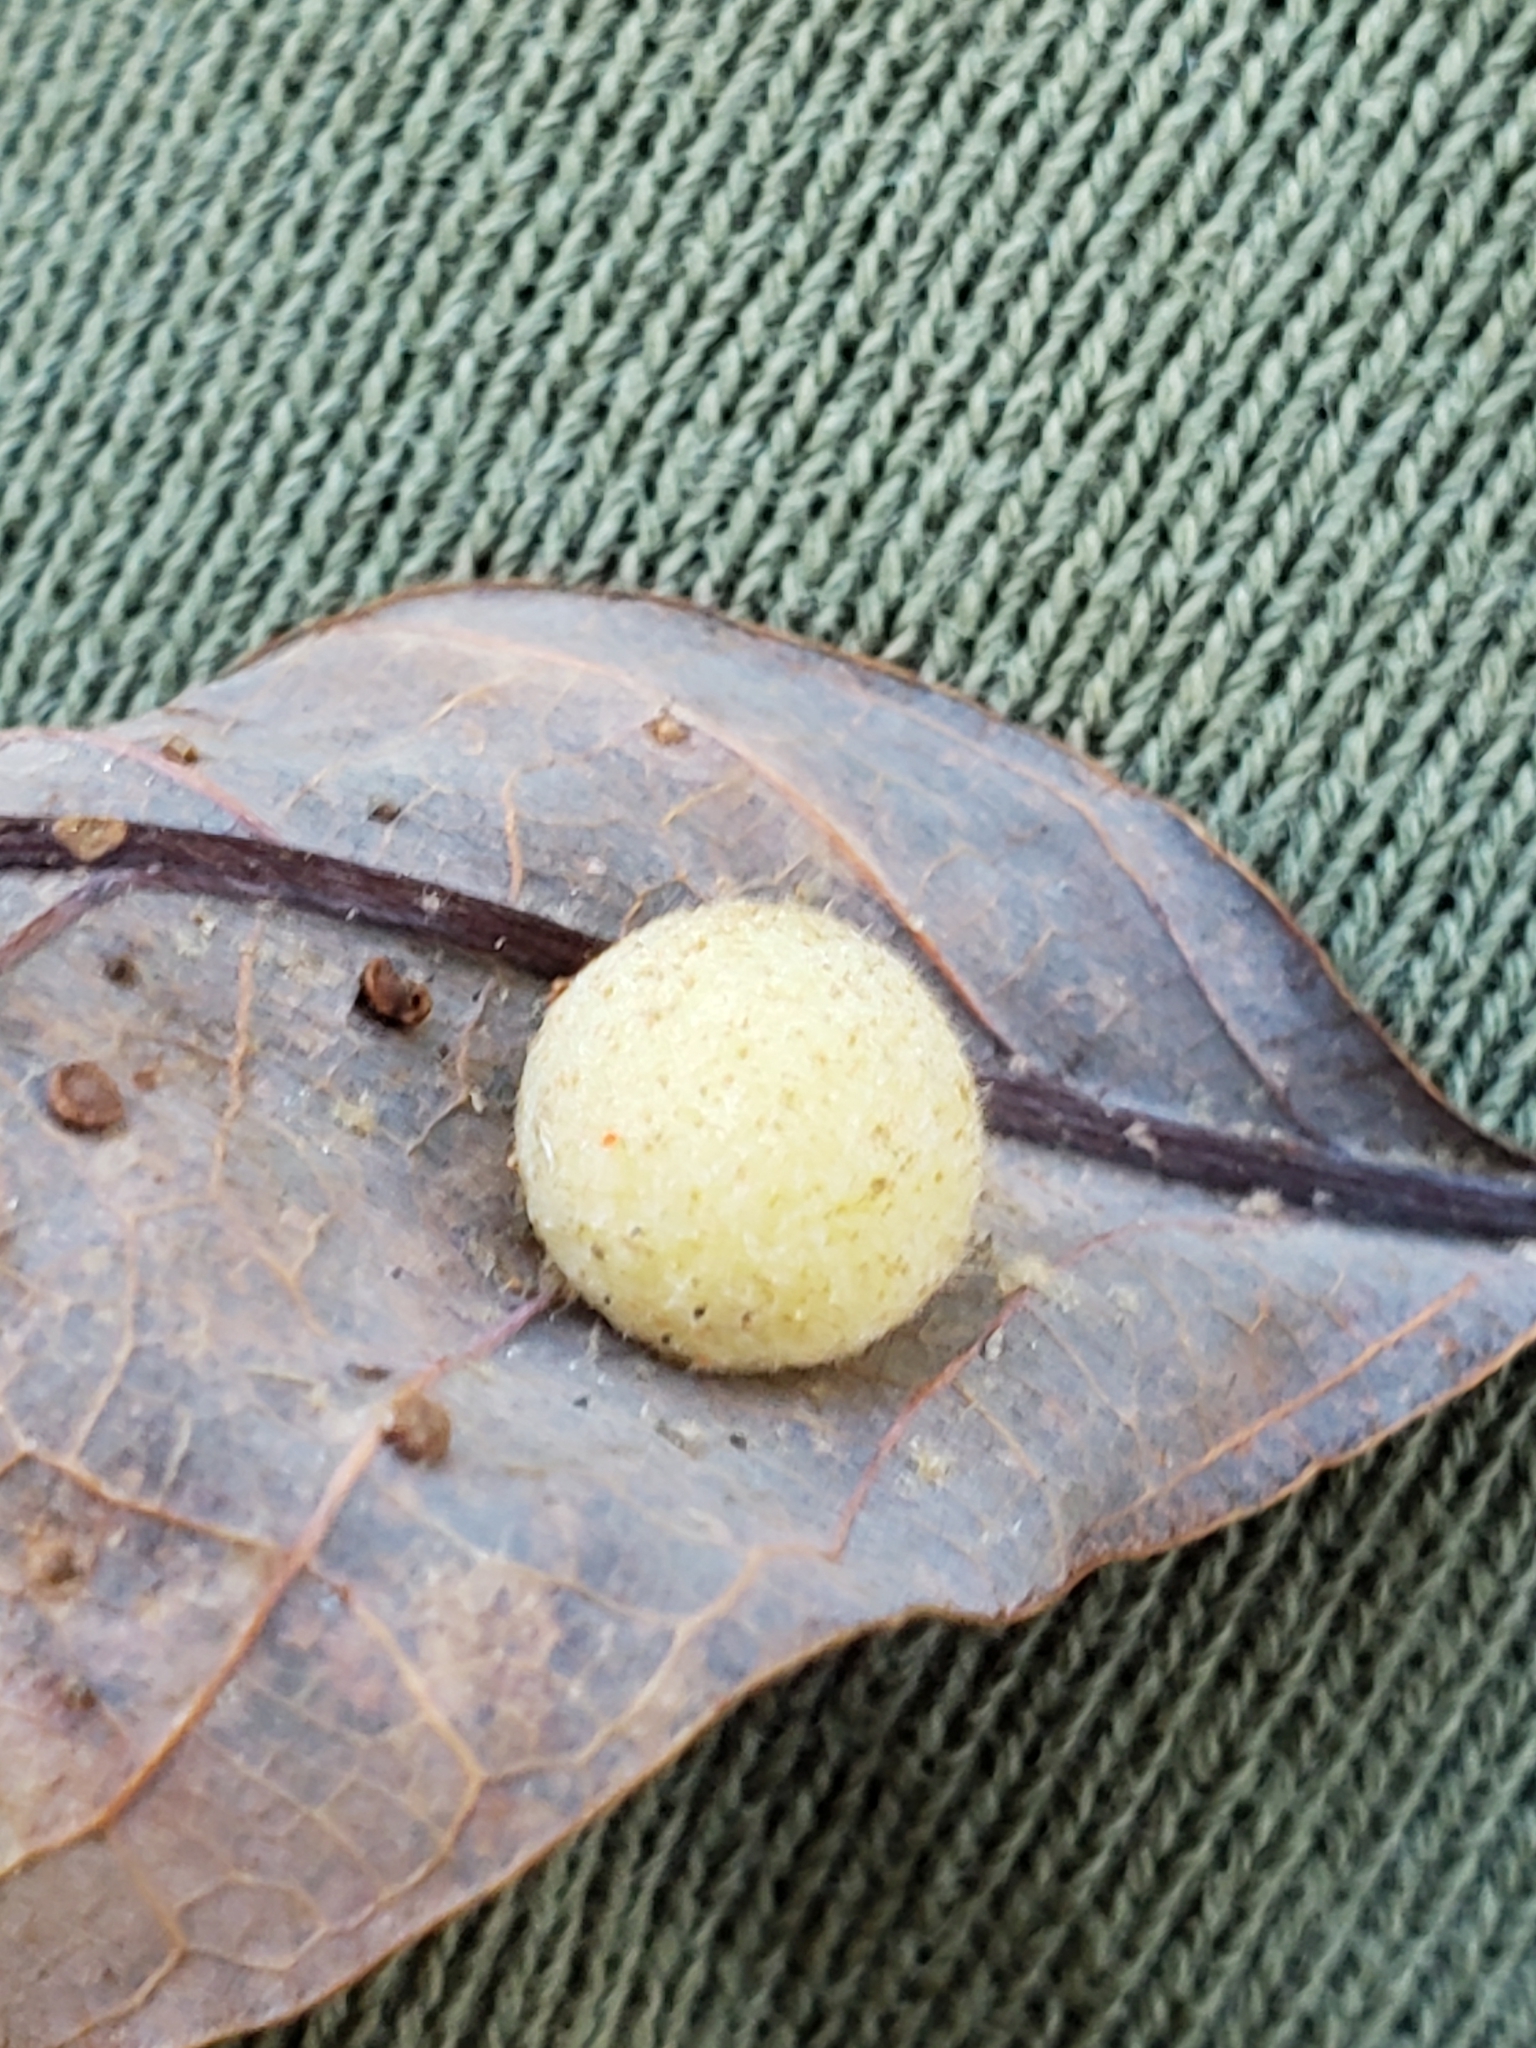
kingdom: Animalia
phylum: Arthropoda
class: Insecta
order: Hymenoptera
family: Cynipidae
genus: Philonix
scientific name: Philonix fulvicollis
